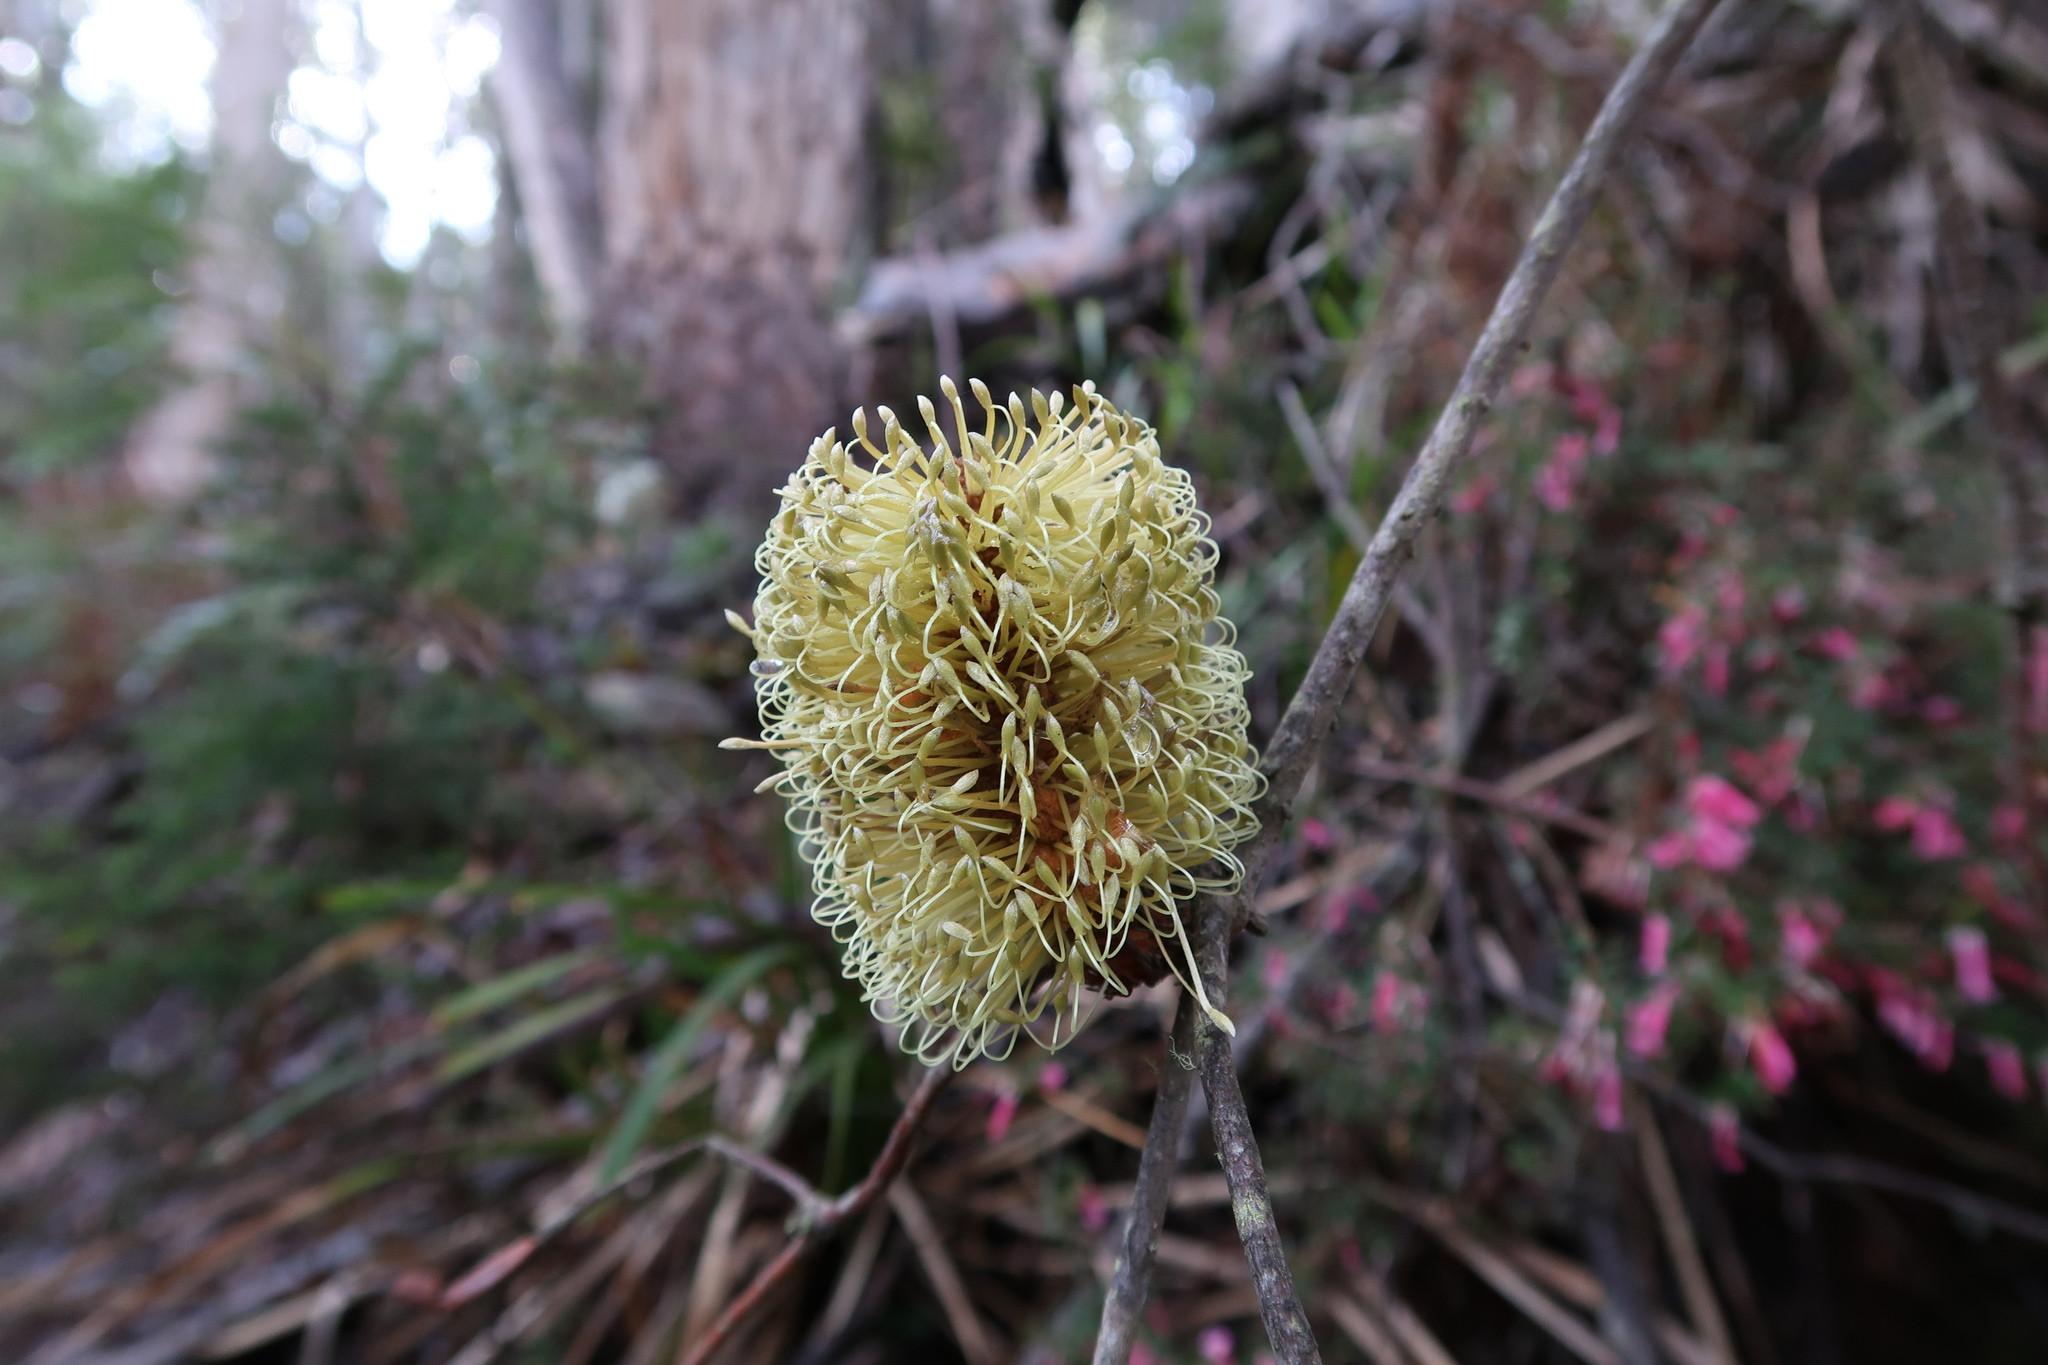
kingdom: Plantae
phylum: Tracheophyta
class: Magnoliopsida
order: Proteales
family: Proteaceae
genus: Banksia
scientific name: Banksia marginata
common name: Silver banksia
